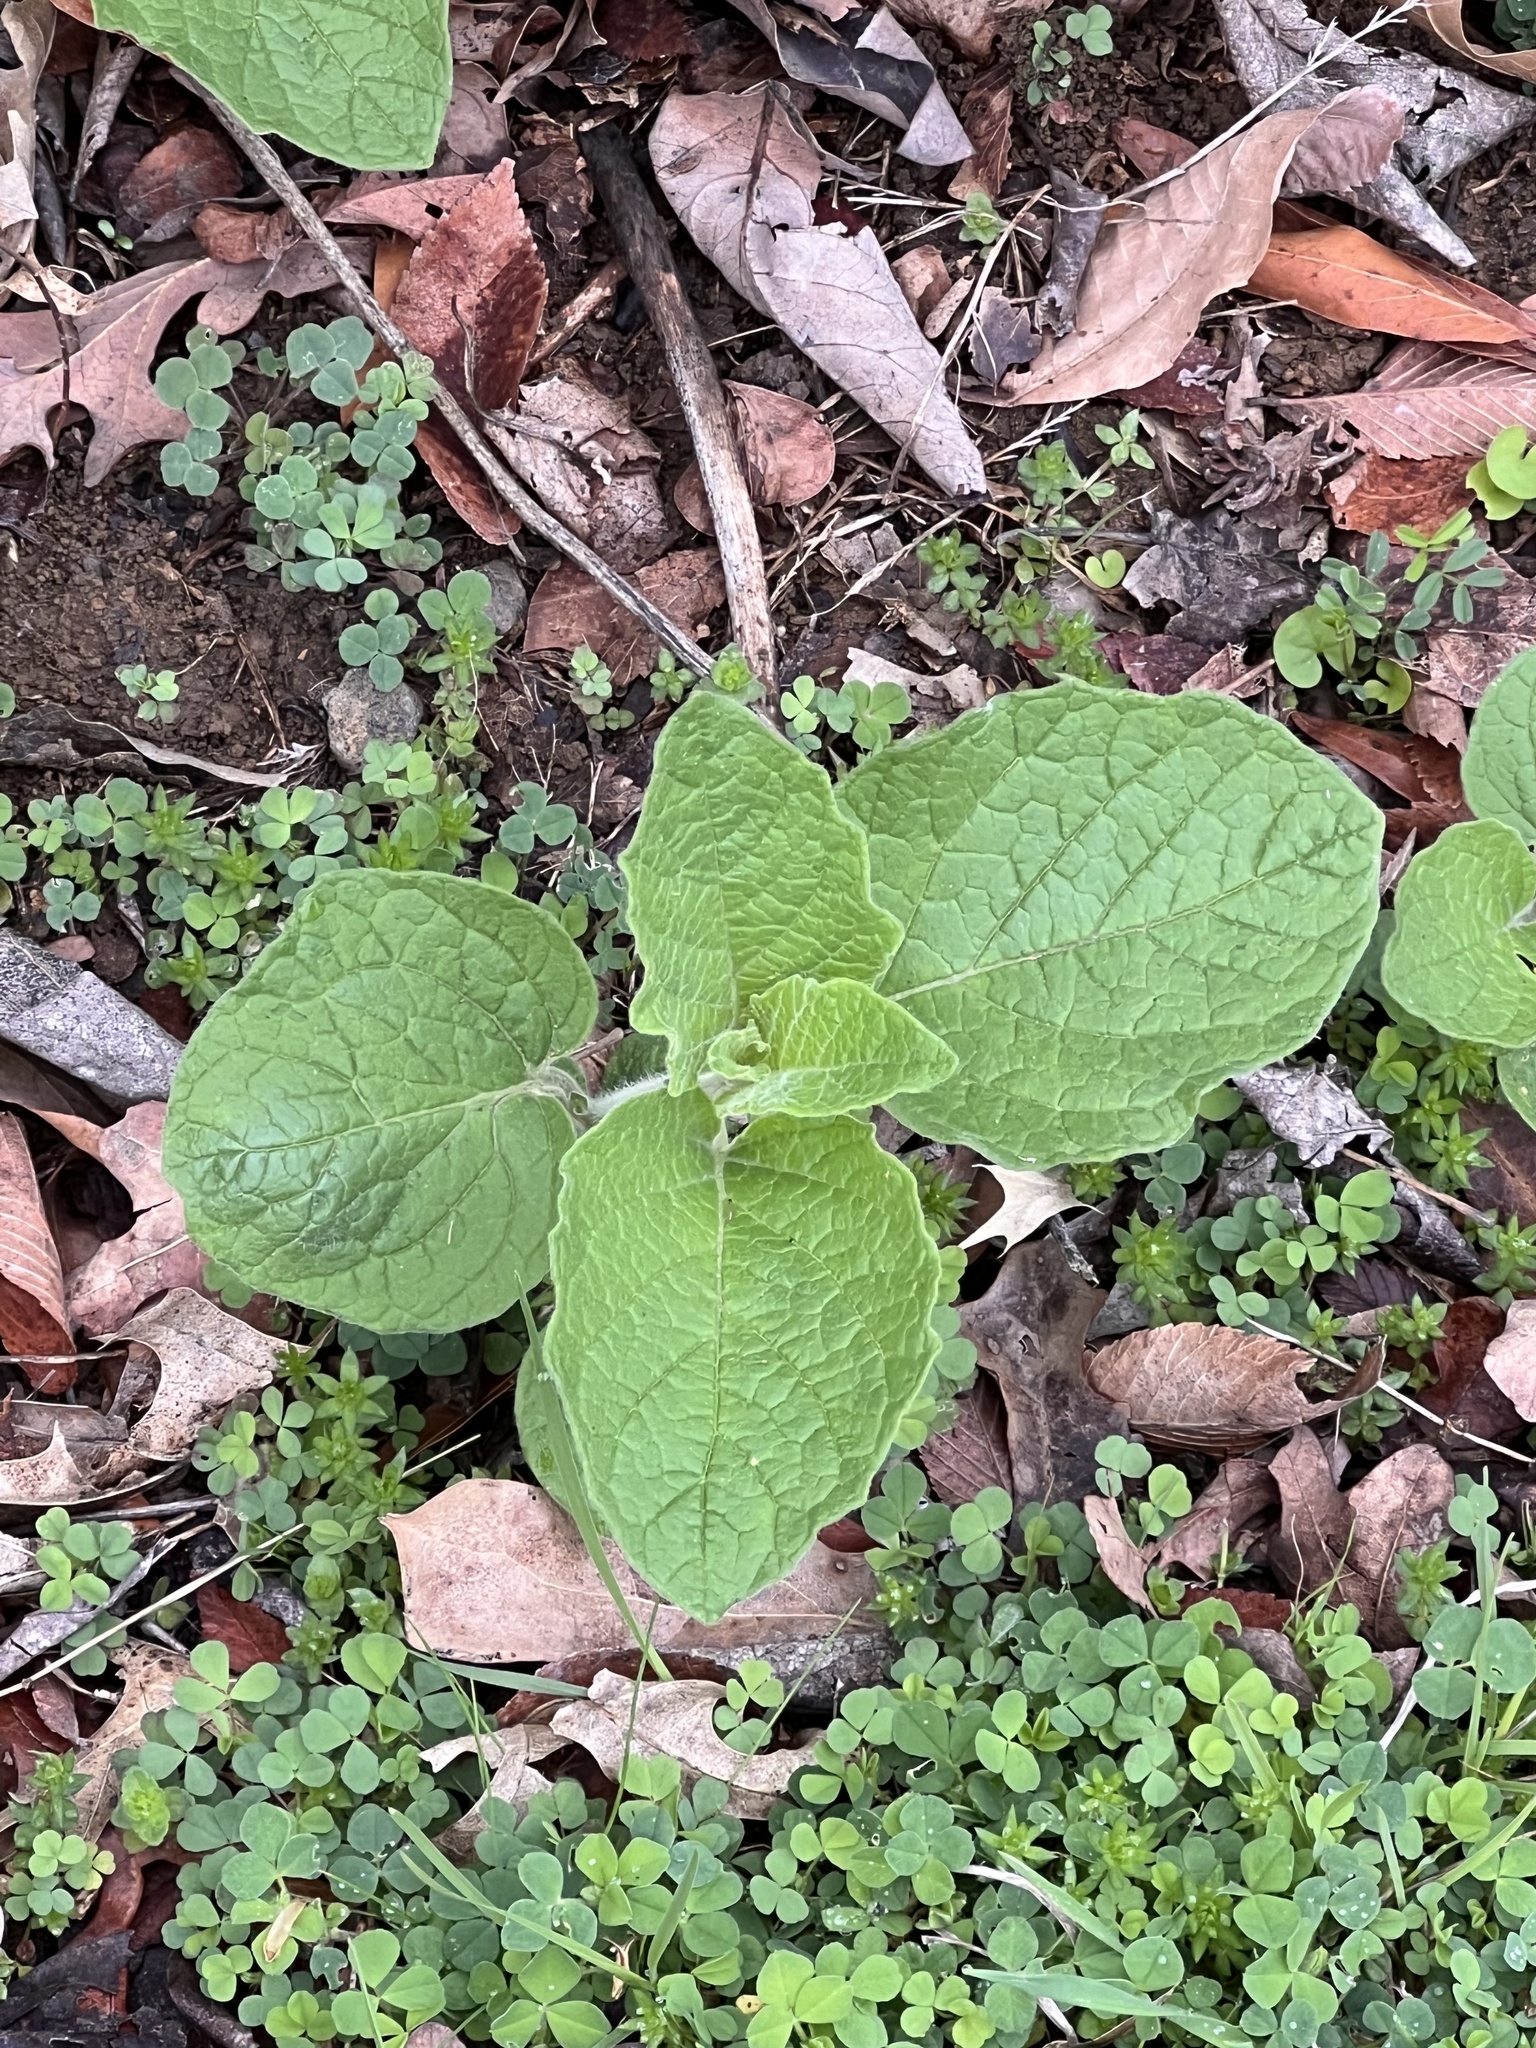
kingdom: Plantae
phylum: Tracheophyta
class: Magnoliopsida
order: Solanales
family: Solanaceae
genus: Physalis
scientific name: Physalis heterophylla
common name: Clammy ground-cherry
